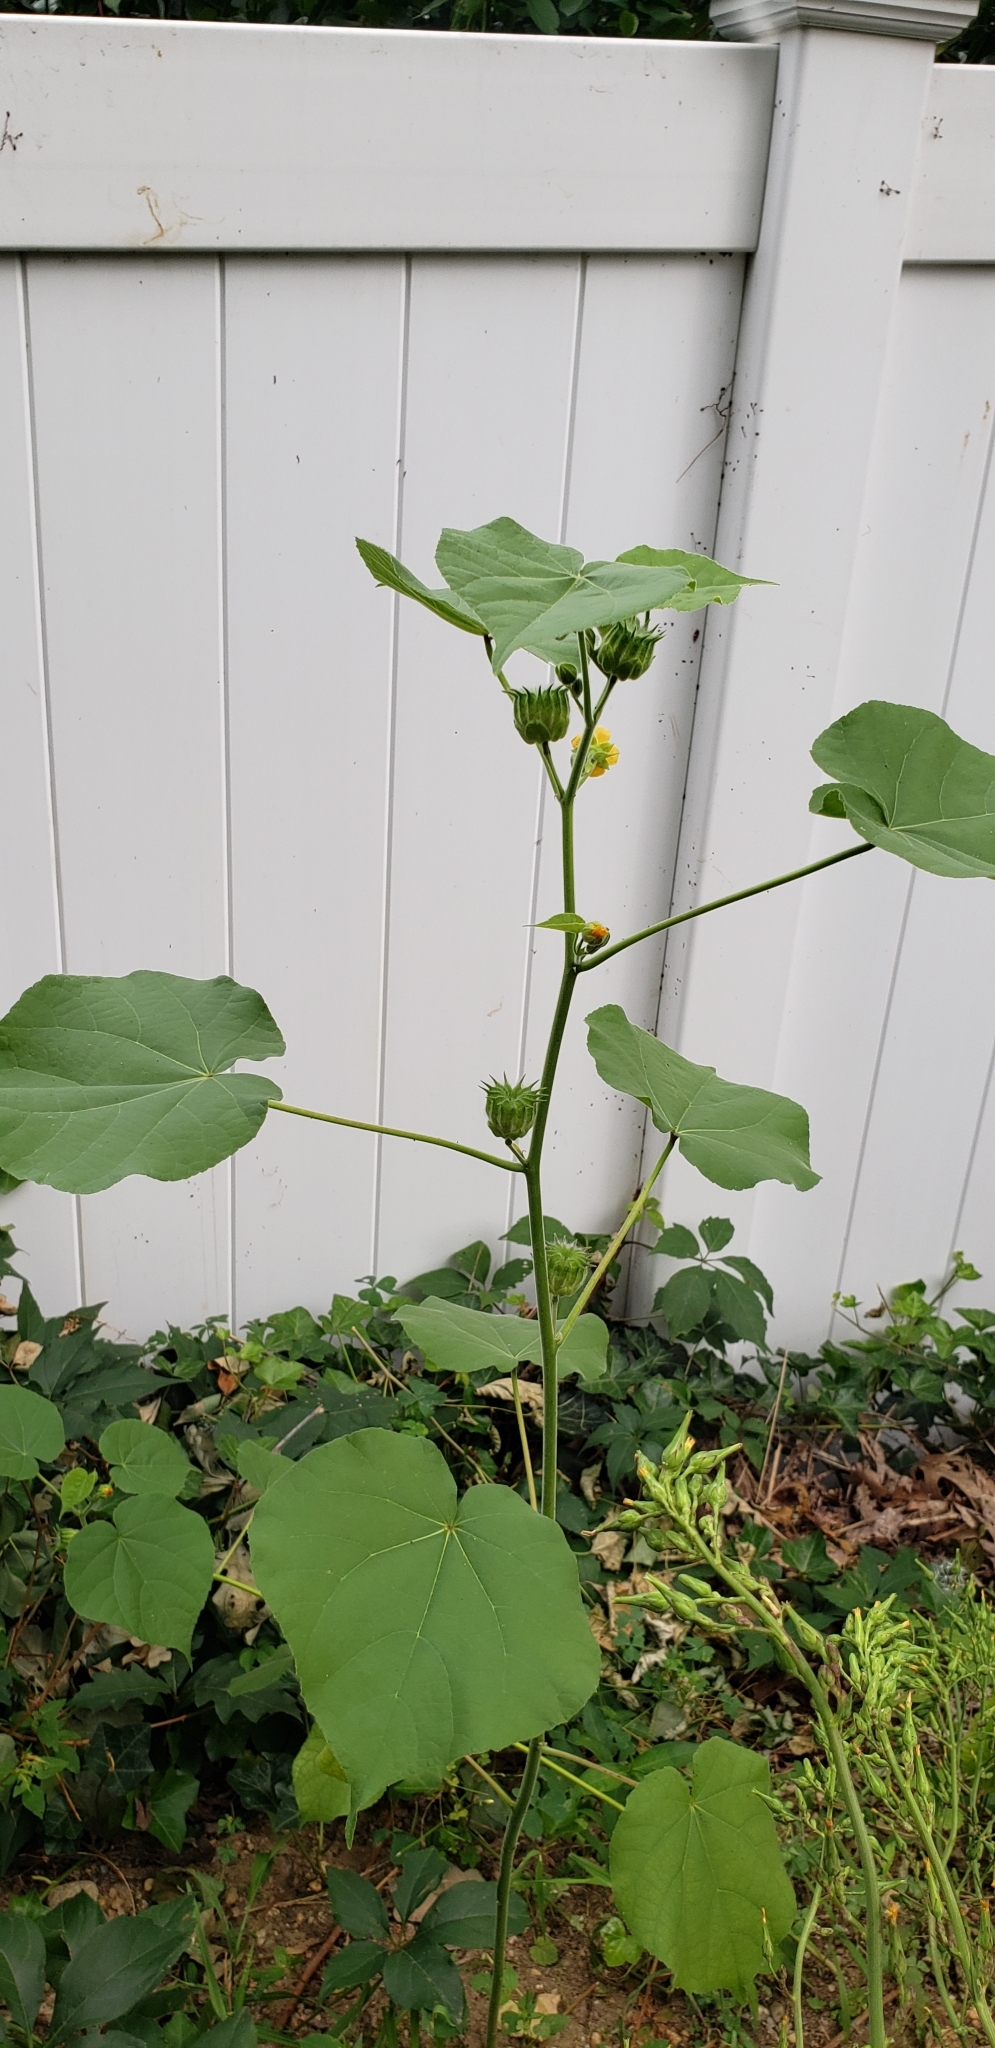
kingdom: Plantae
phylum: Tracheophyta
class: Magnoliopsida
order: Malvales
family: Malvaceae
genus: Abutilon
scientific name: Abutilon theophrasti
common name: Velvetleaf
